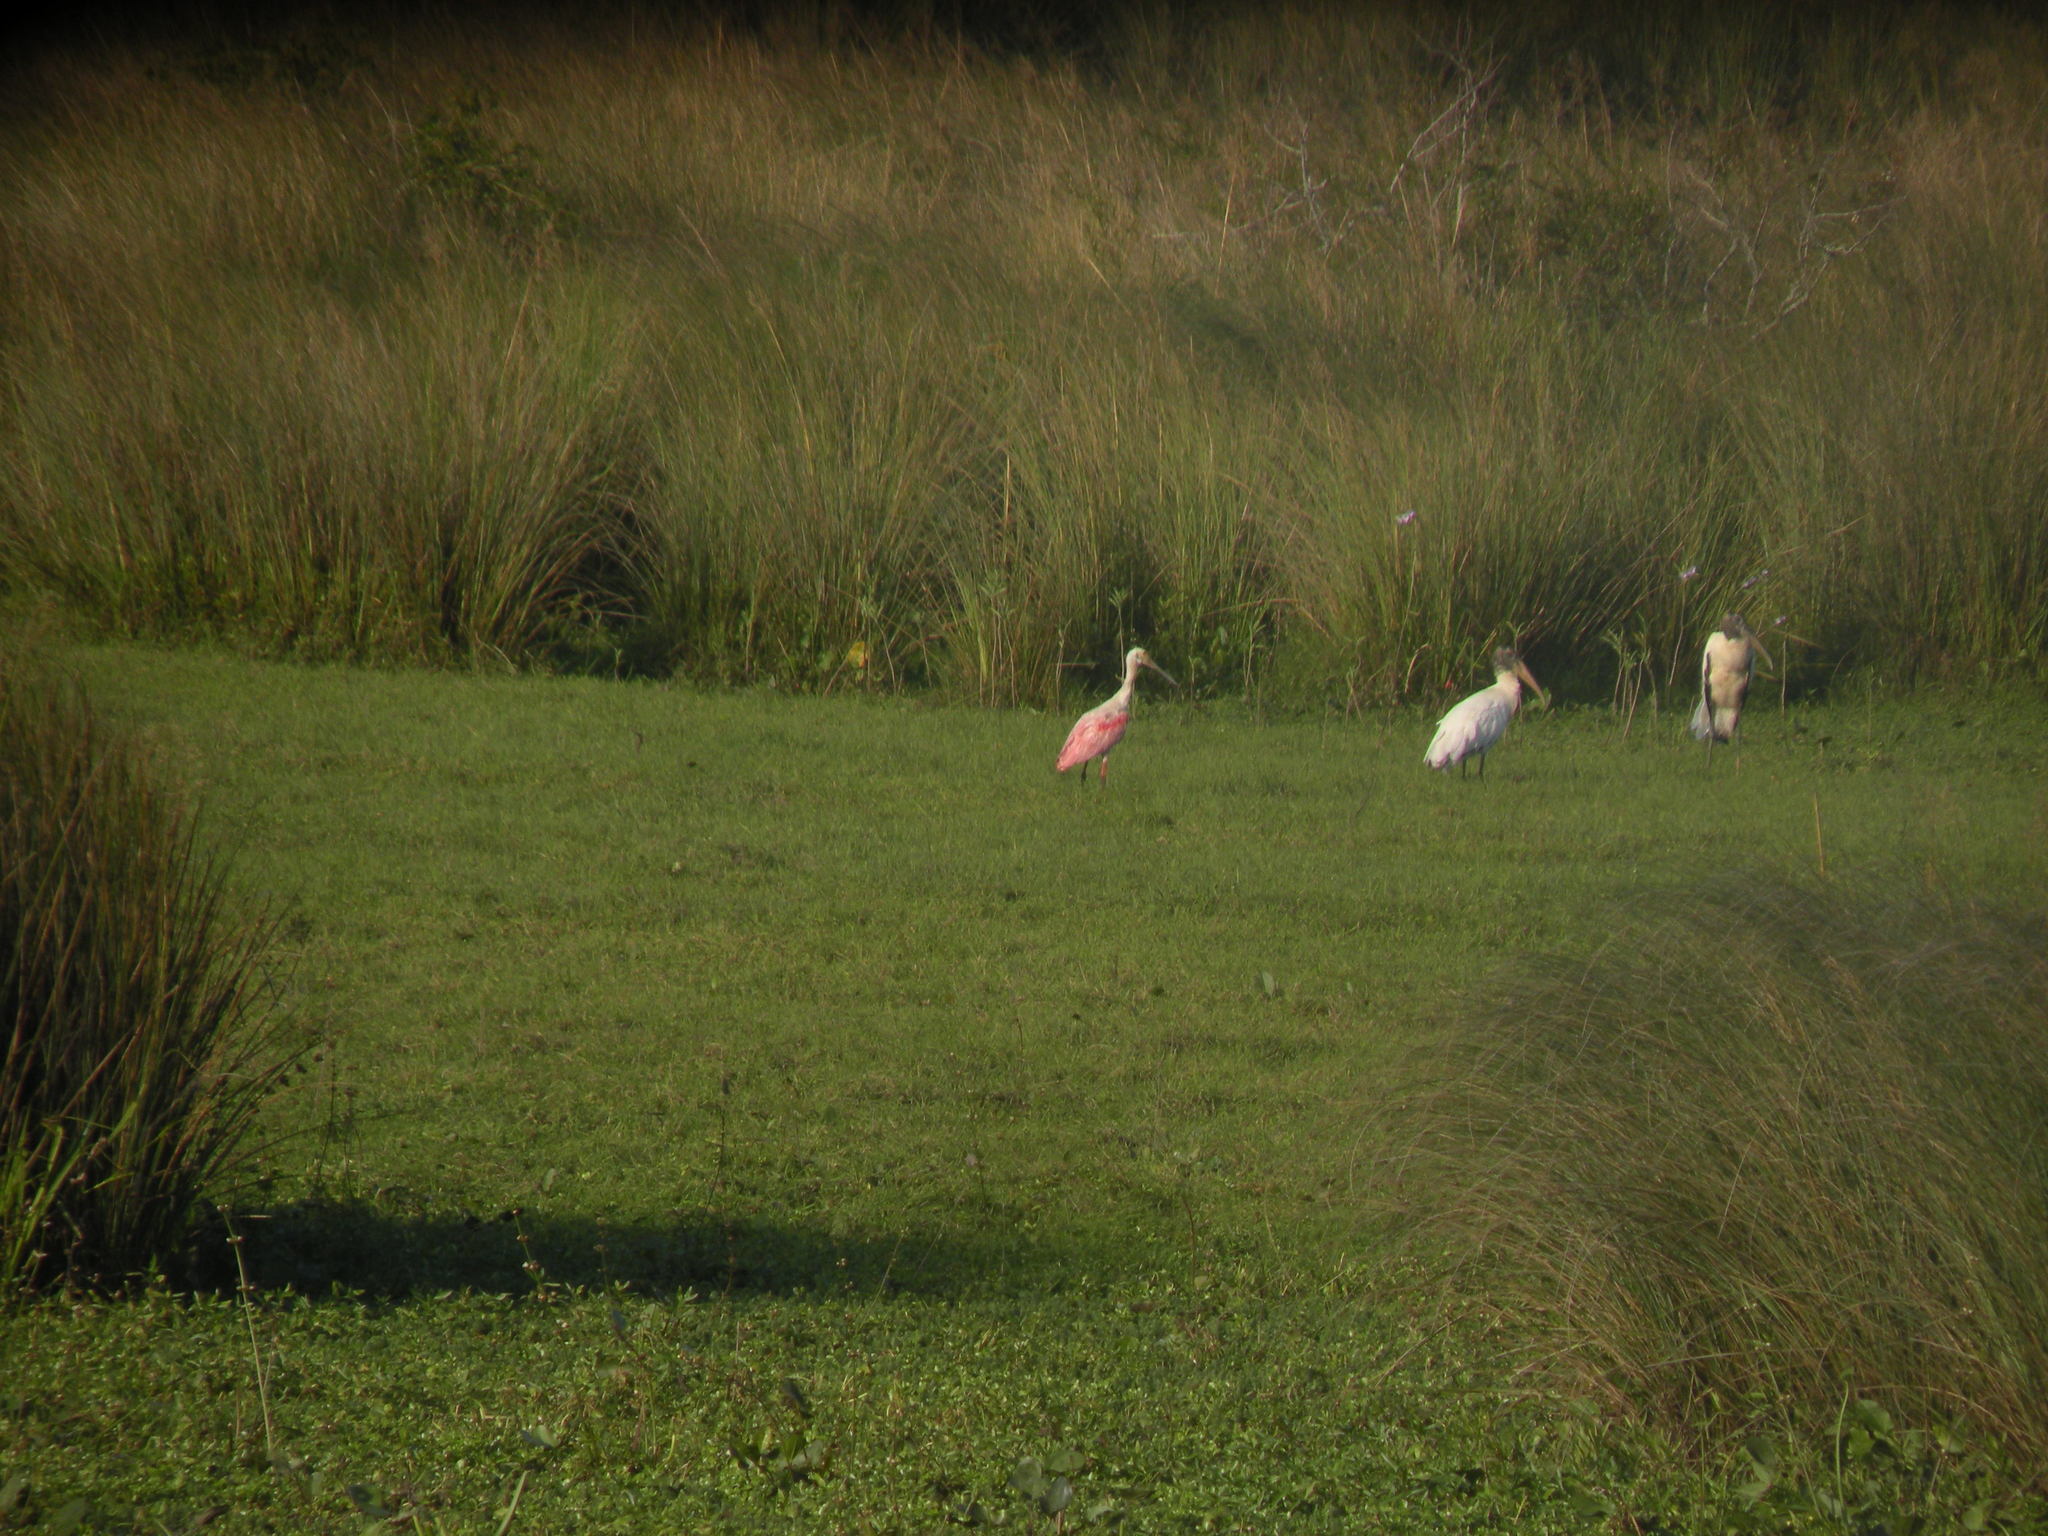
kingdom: Animalia
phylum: Chordata
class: Aves
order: Pelecaniformes
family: Threskiornithidae
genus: Platalea
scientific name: Platalea ajaja
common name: Roseate spoonbill
